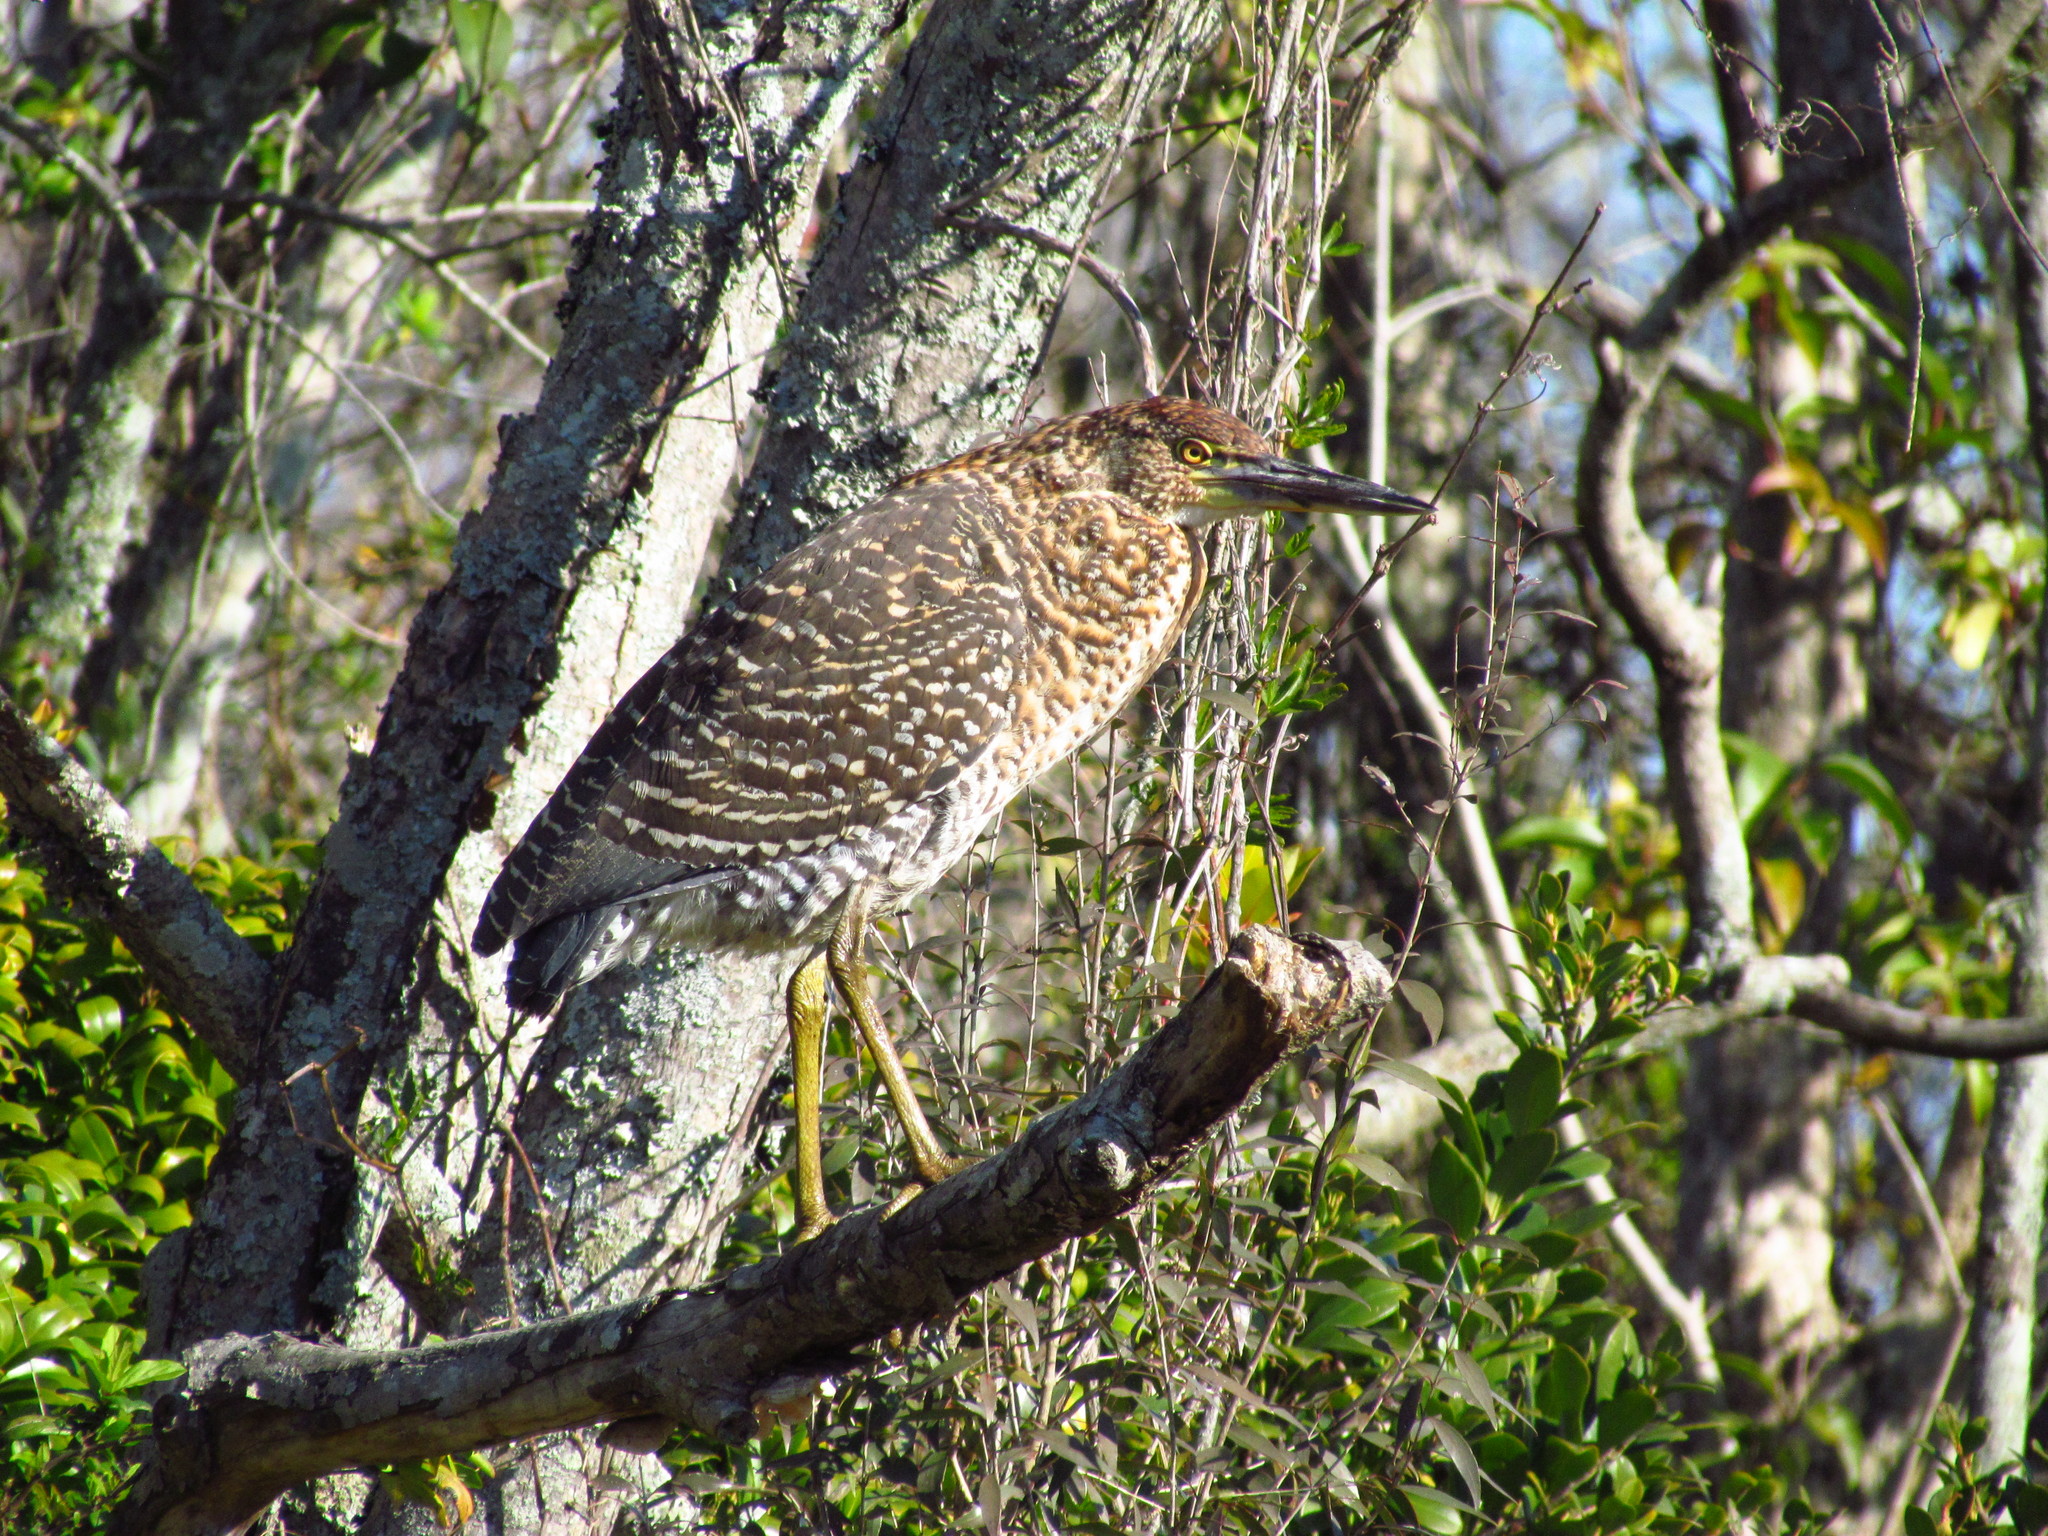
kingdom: Animalia
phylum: Chordata
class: Aves
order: Pelecaniformes
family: Ardeidae
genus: Tigrisoma
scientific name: Tigrisoma lineatum
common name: Rufescent tiger-heron
